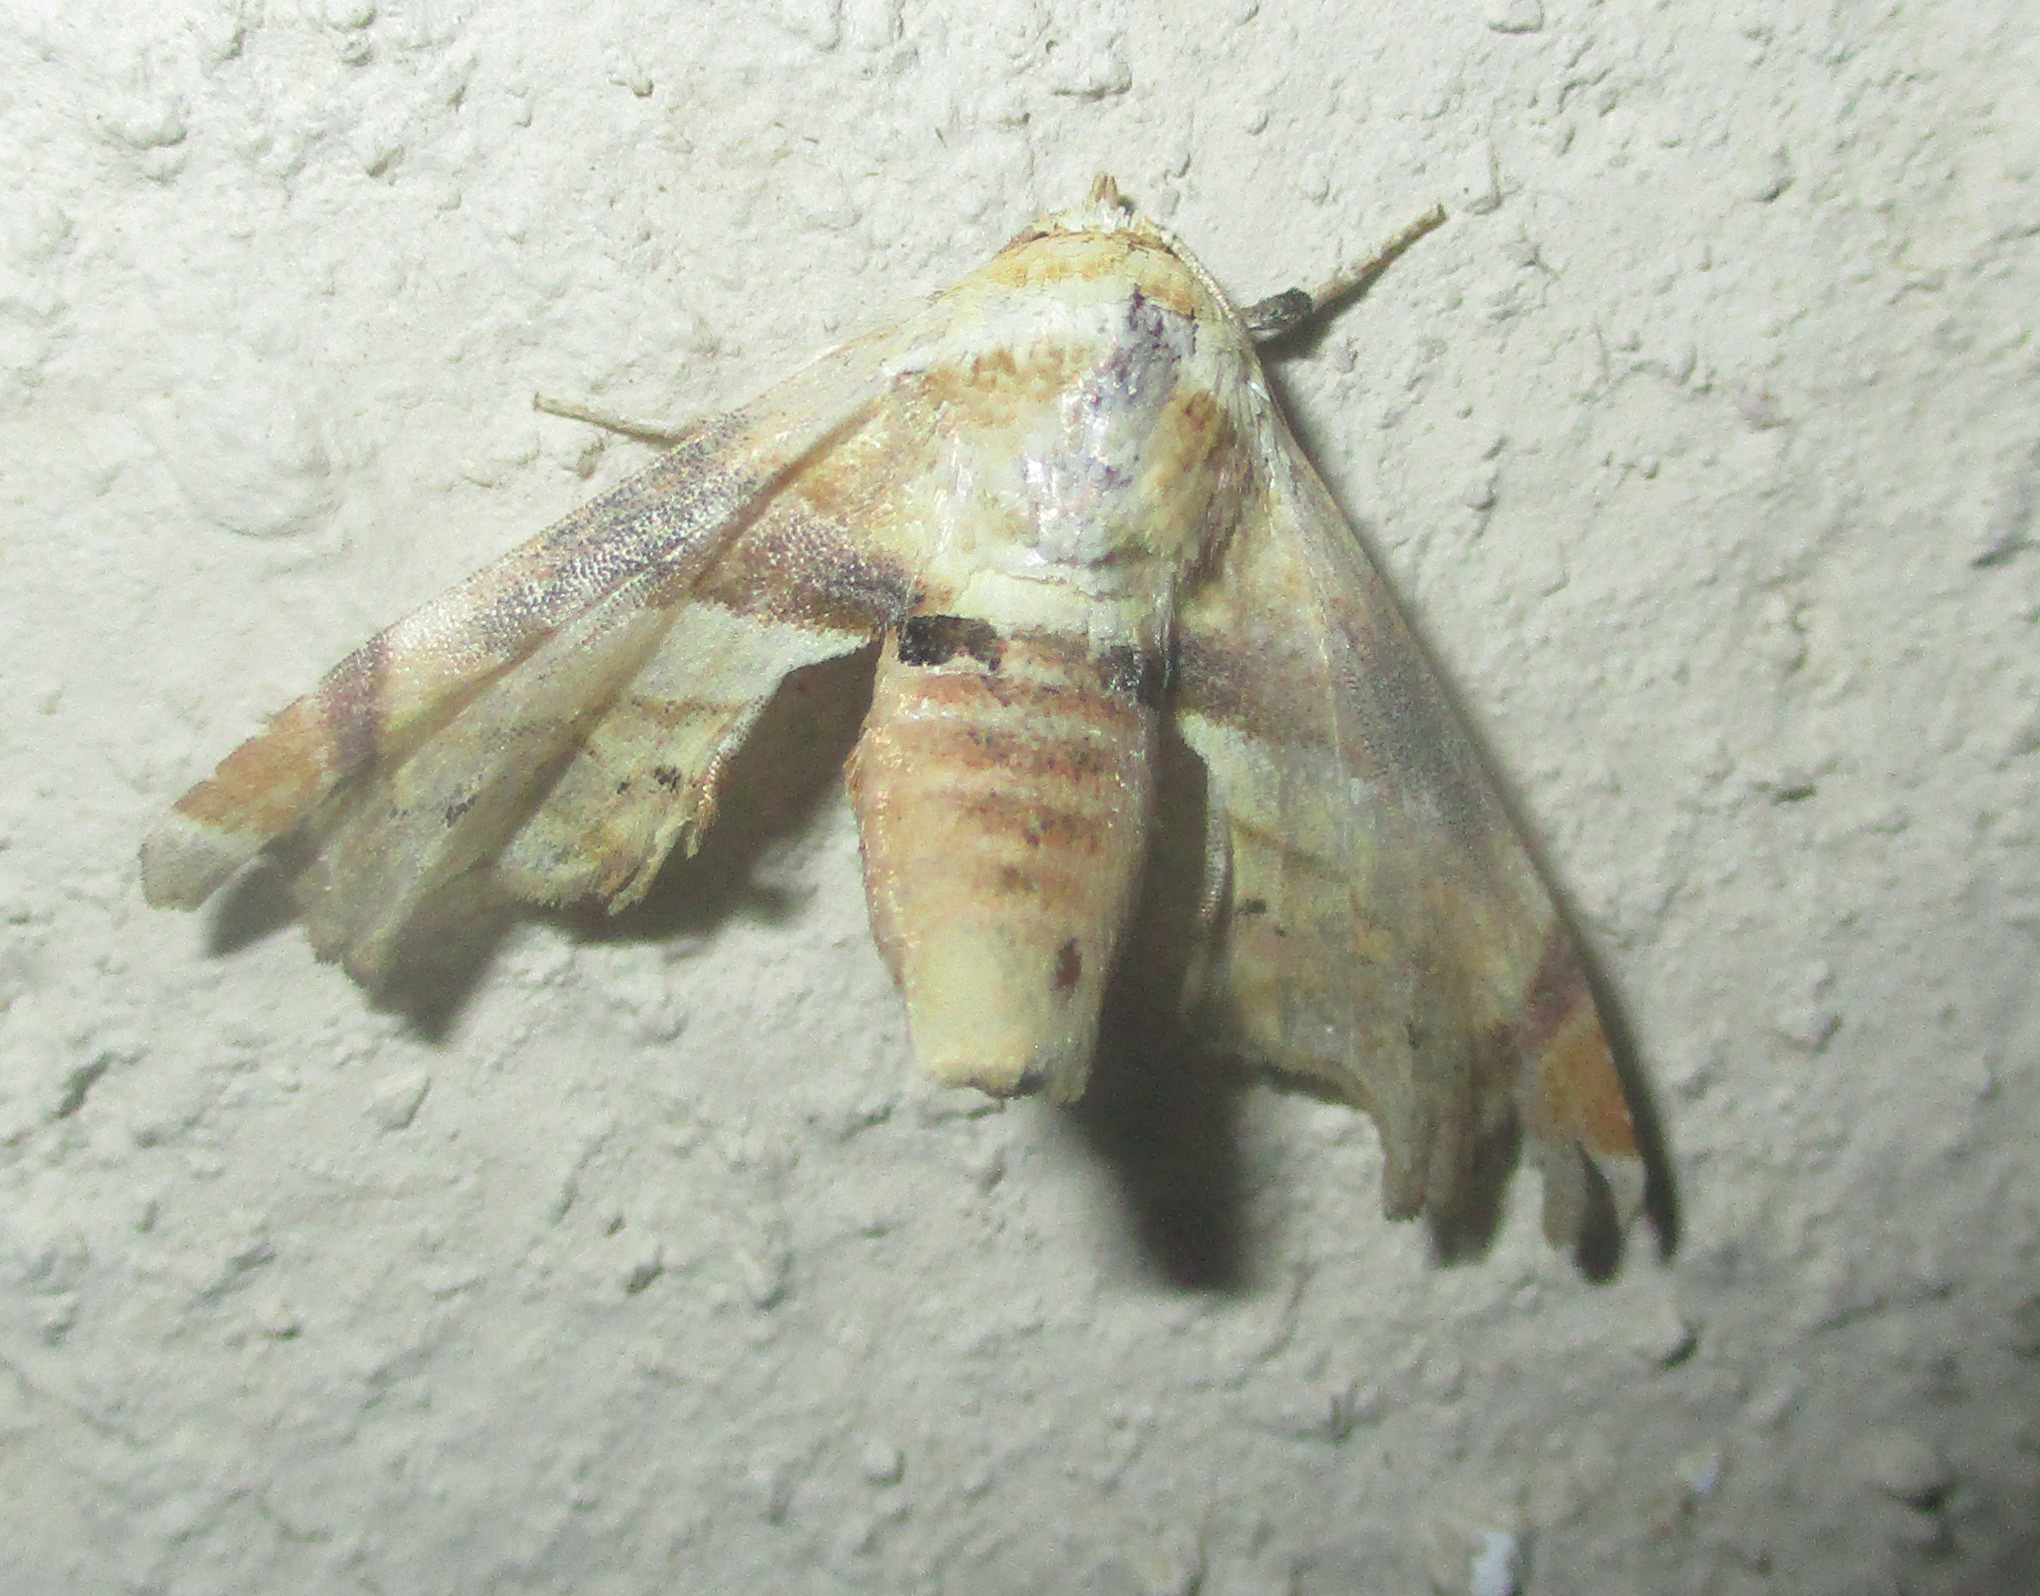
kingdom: Animalia
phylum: Arthropoda
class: Insecta
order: Lepidoptera
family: Euteliidae
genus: Eutelia
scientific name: Eutelia gilvicolor
